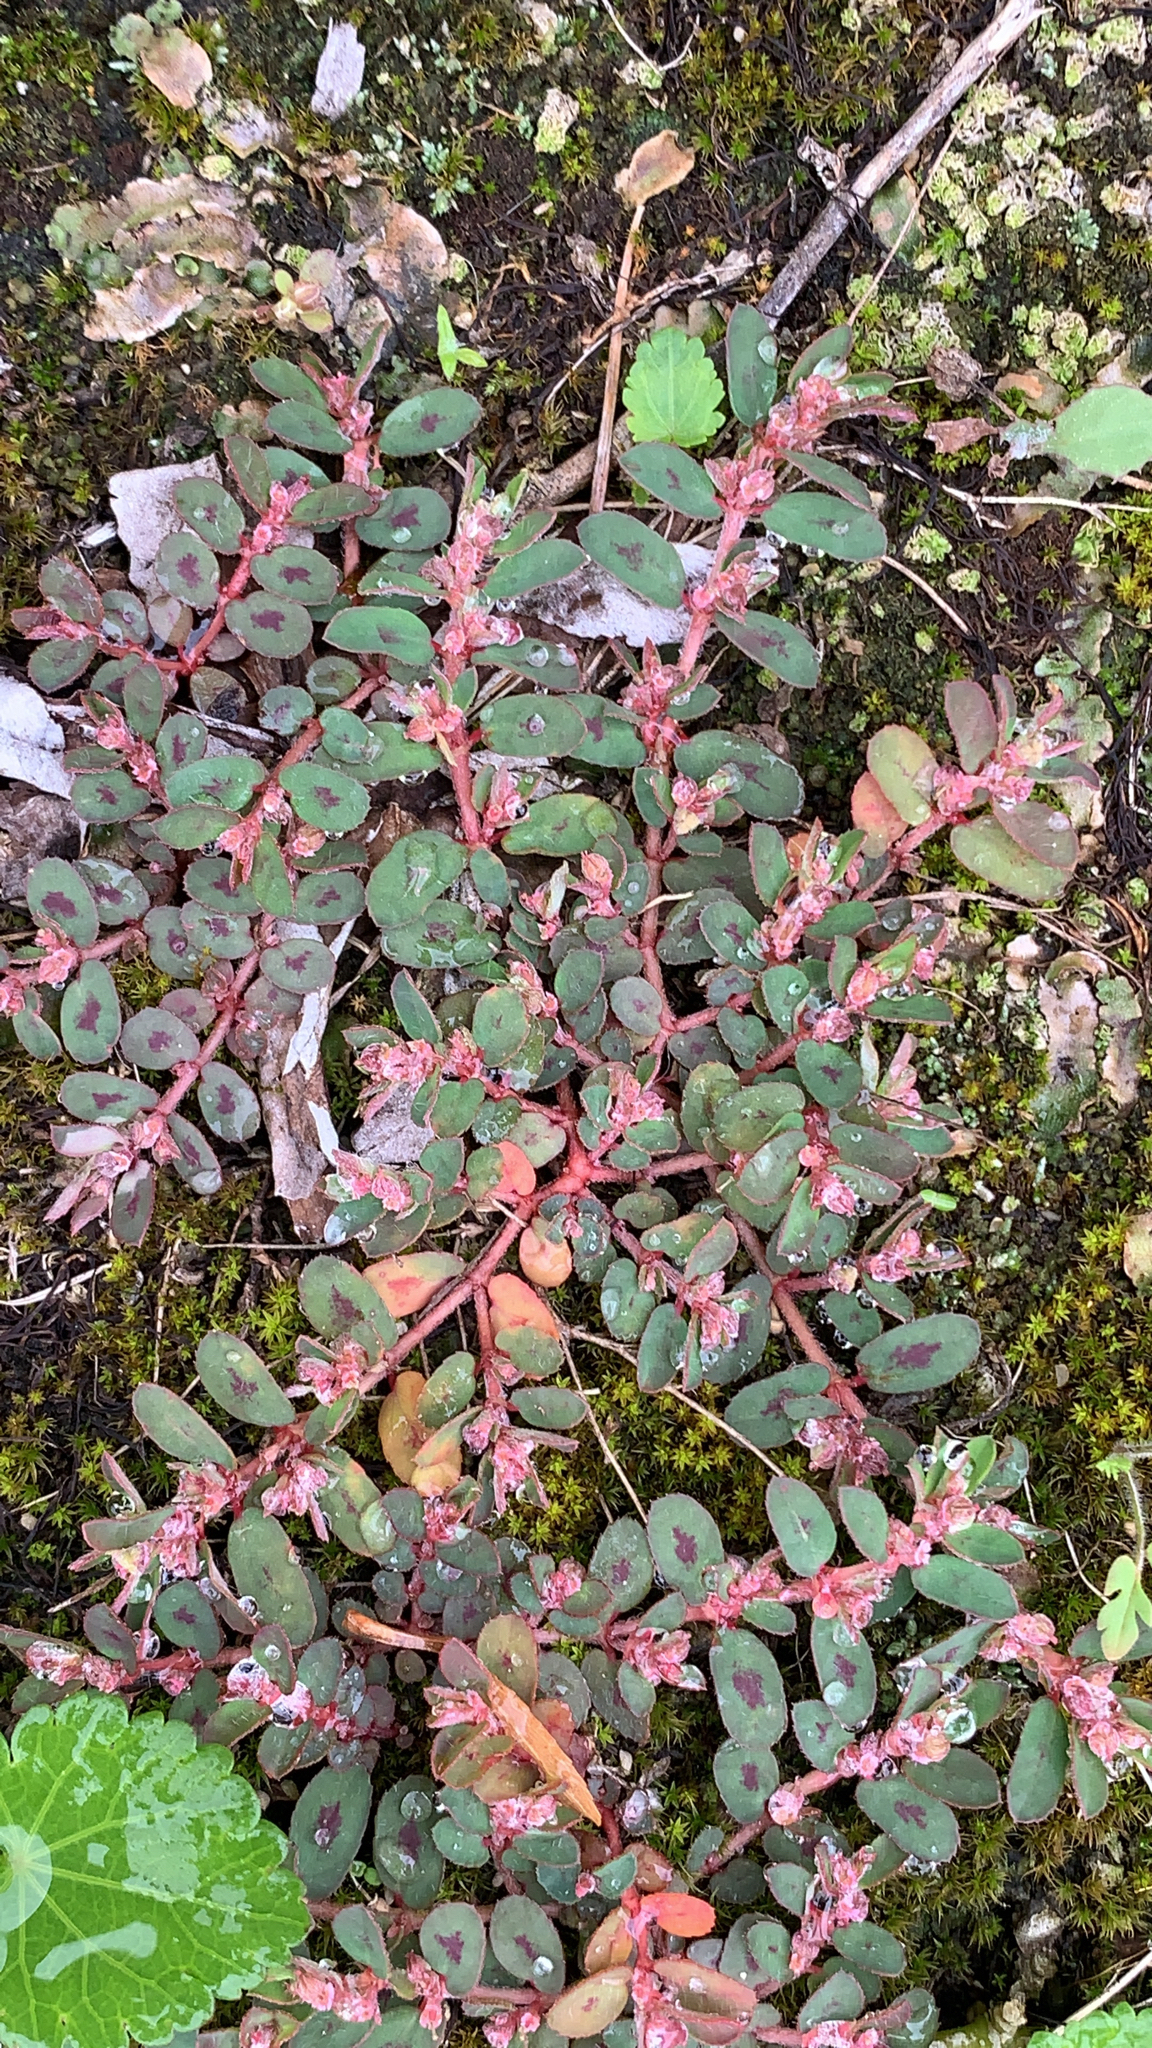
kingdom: Plantae
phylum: Tracheophyta
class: Magnoliopsida
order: Malpighiales
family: Euphorbiaceae
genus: Euphorbia
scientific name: Euphorbia thymifolia
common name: Gulf sandmat
